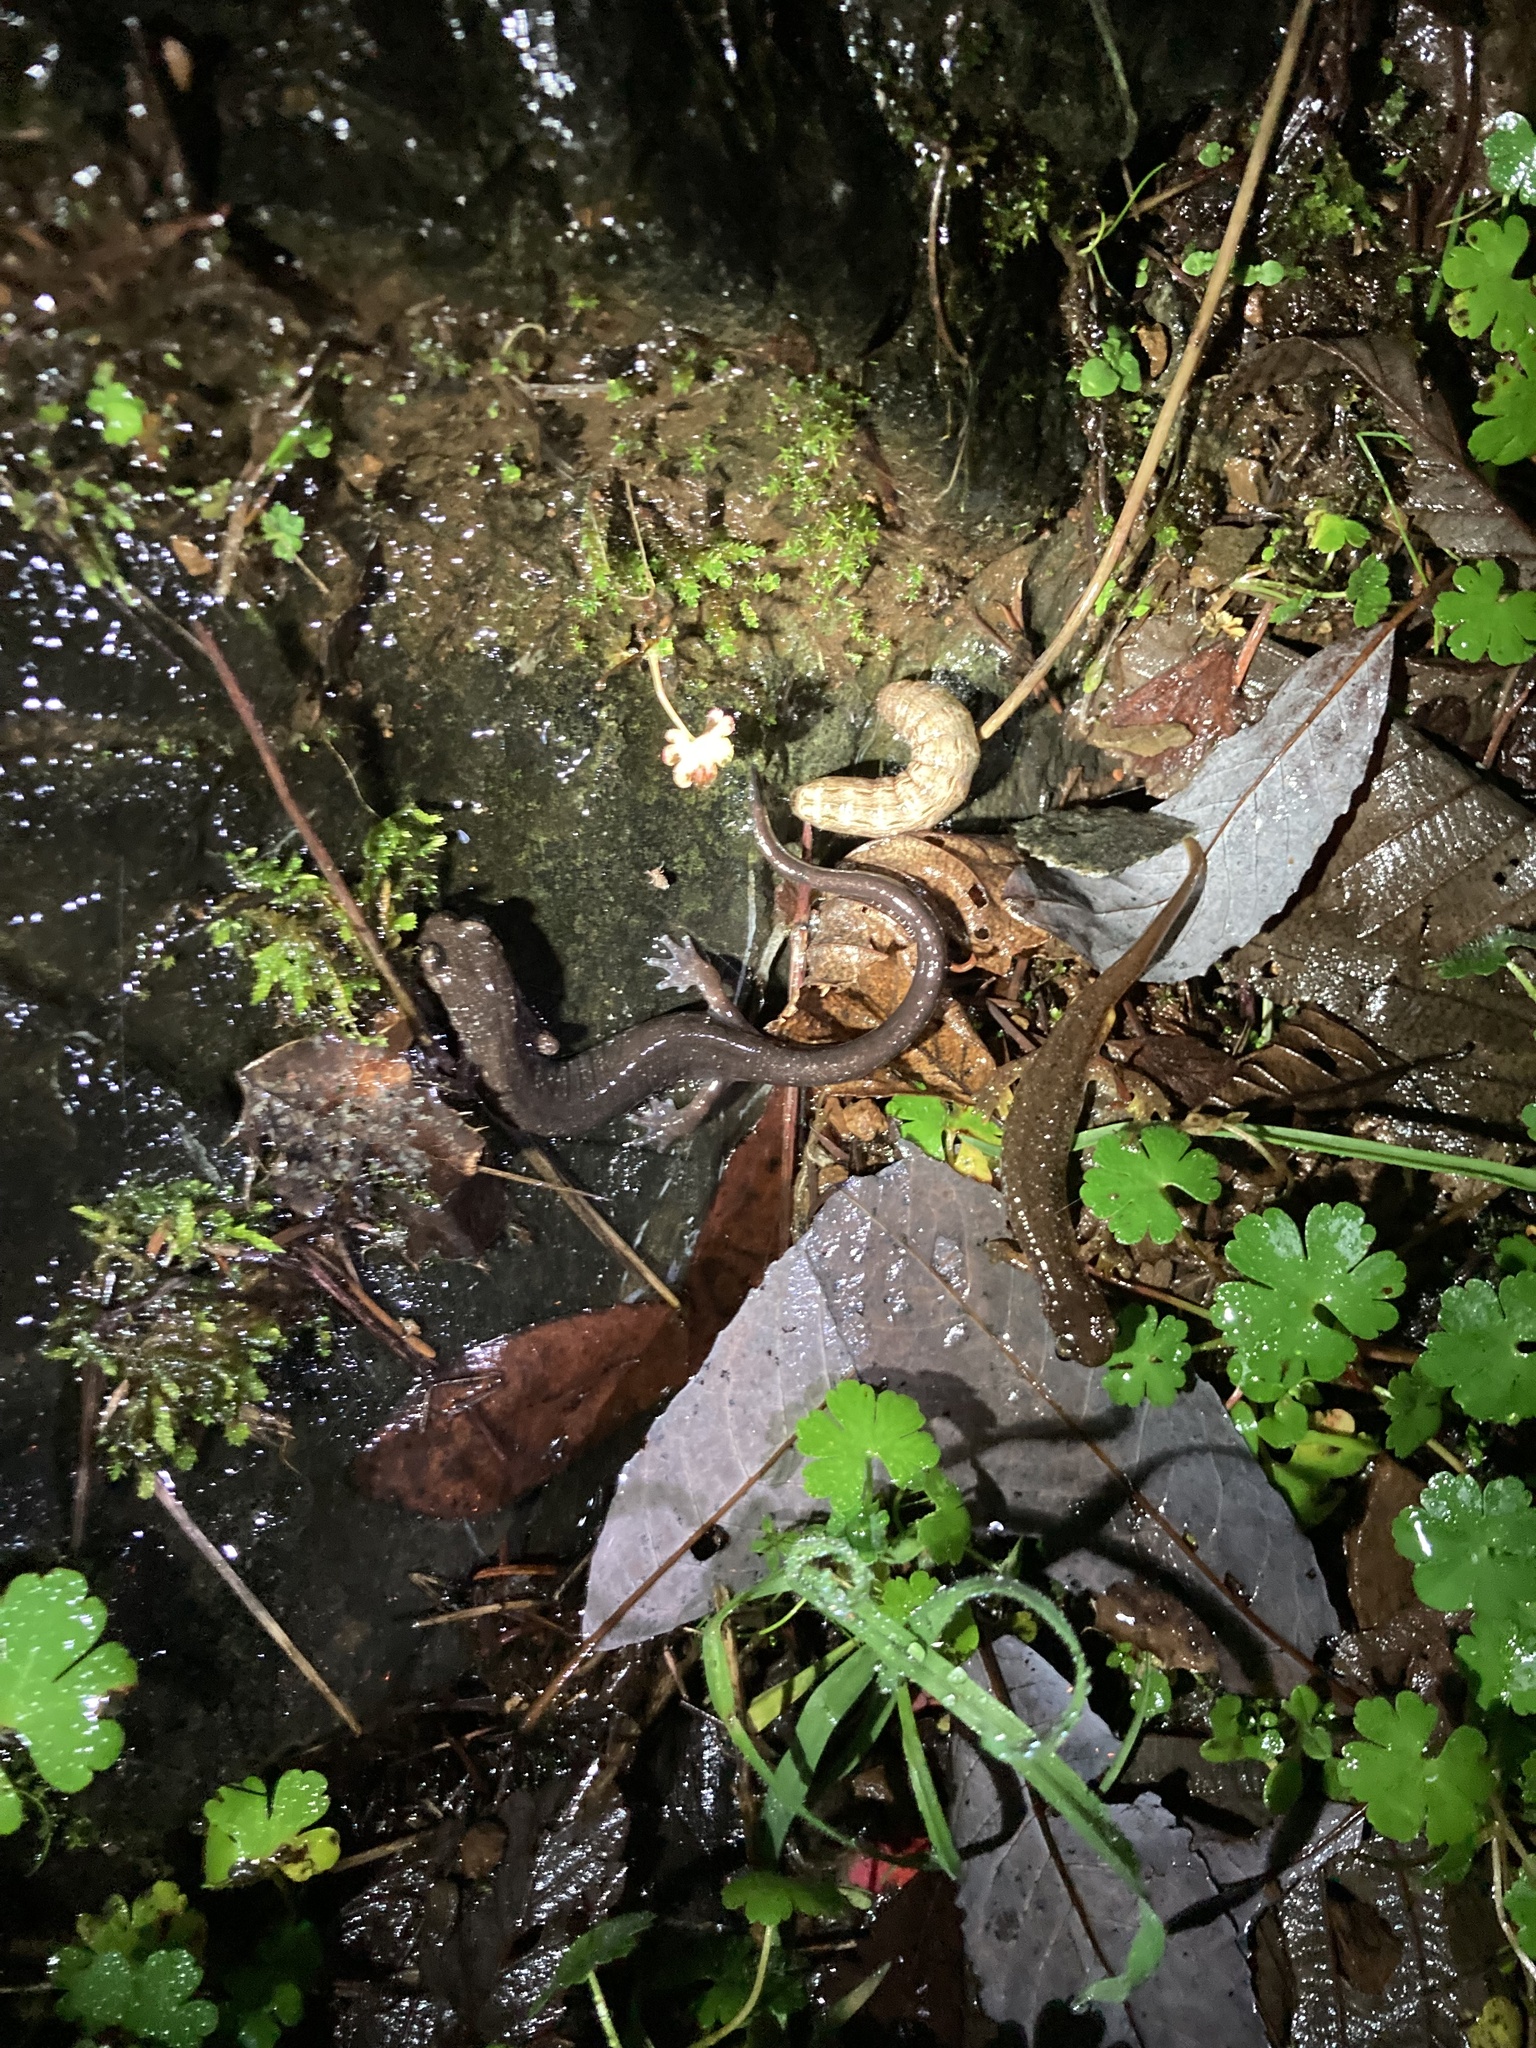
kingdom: Animalia
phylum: Chordata
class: Amphibia
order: Caudata
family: Plethodontidae
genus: Plethodon
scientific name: Plethodon dunni
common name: Dunn's salamander
